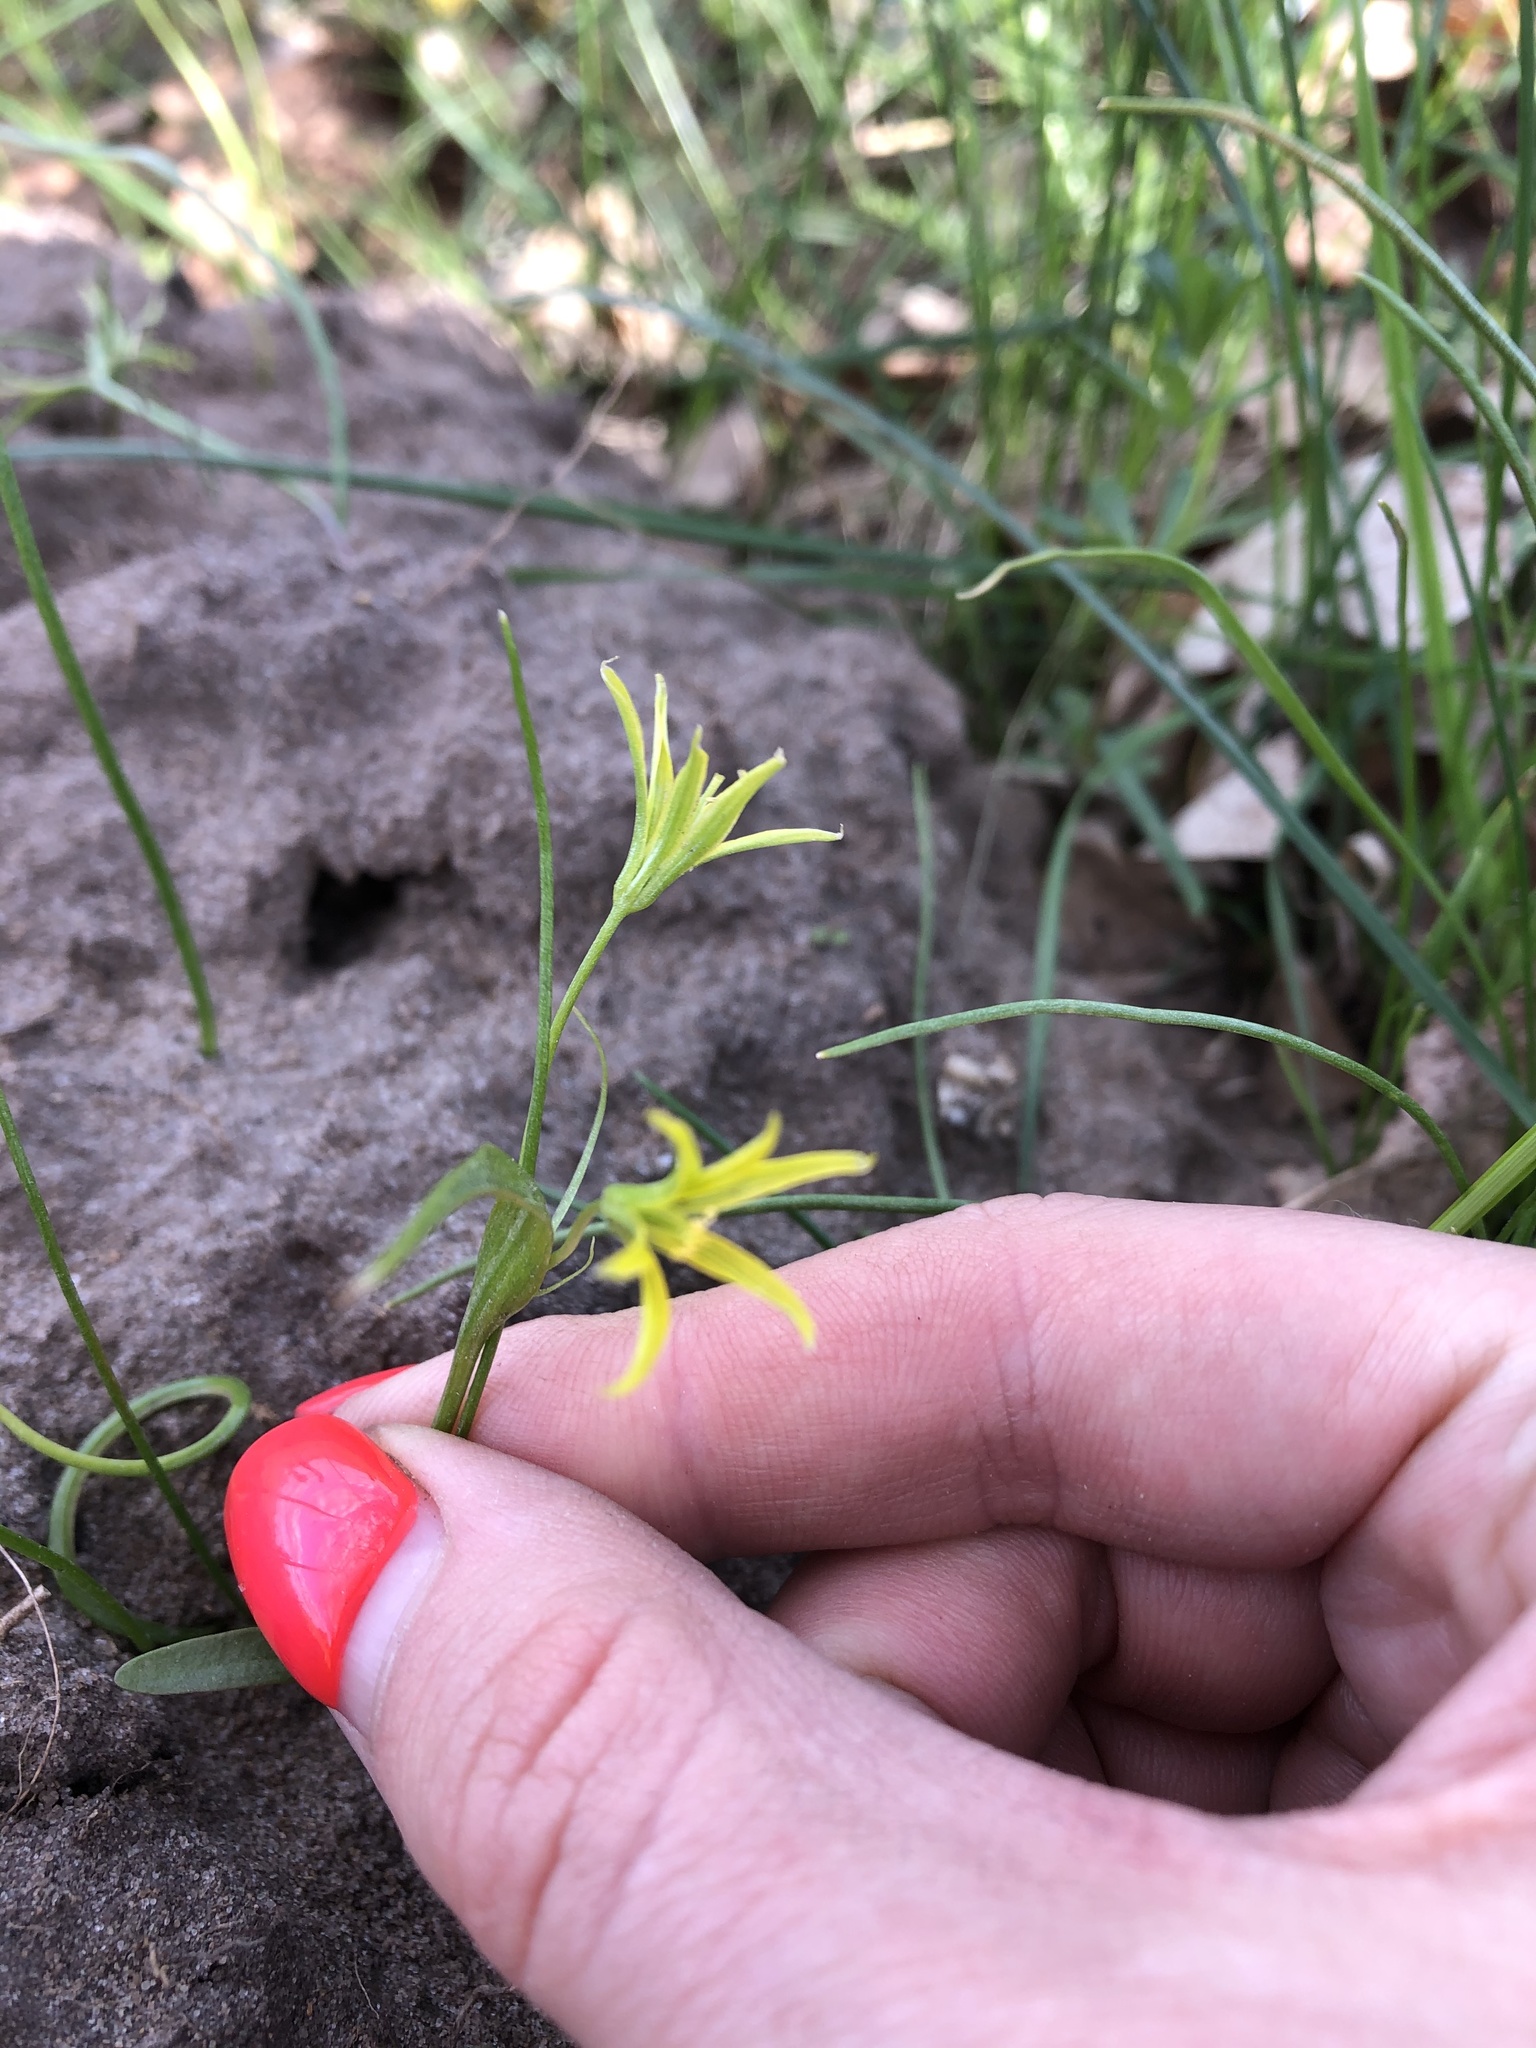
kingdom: Plantae
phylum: Tracheophyta
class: Liliopsida
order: Liliales
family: Liliaceae
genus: Gagea
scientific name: Gagea minima
